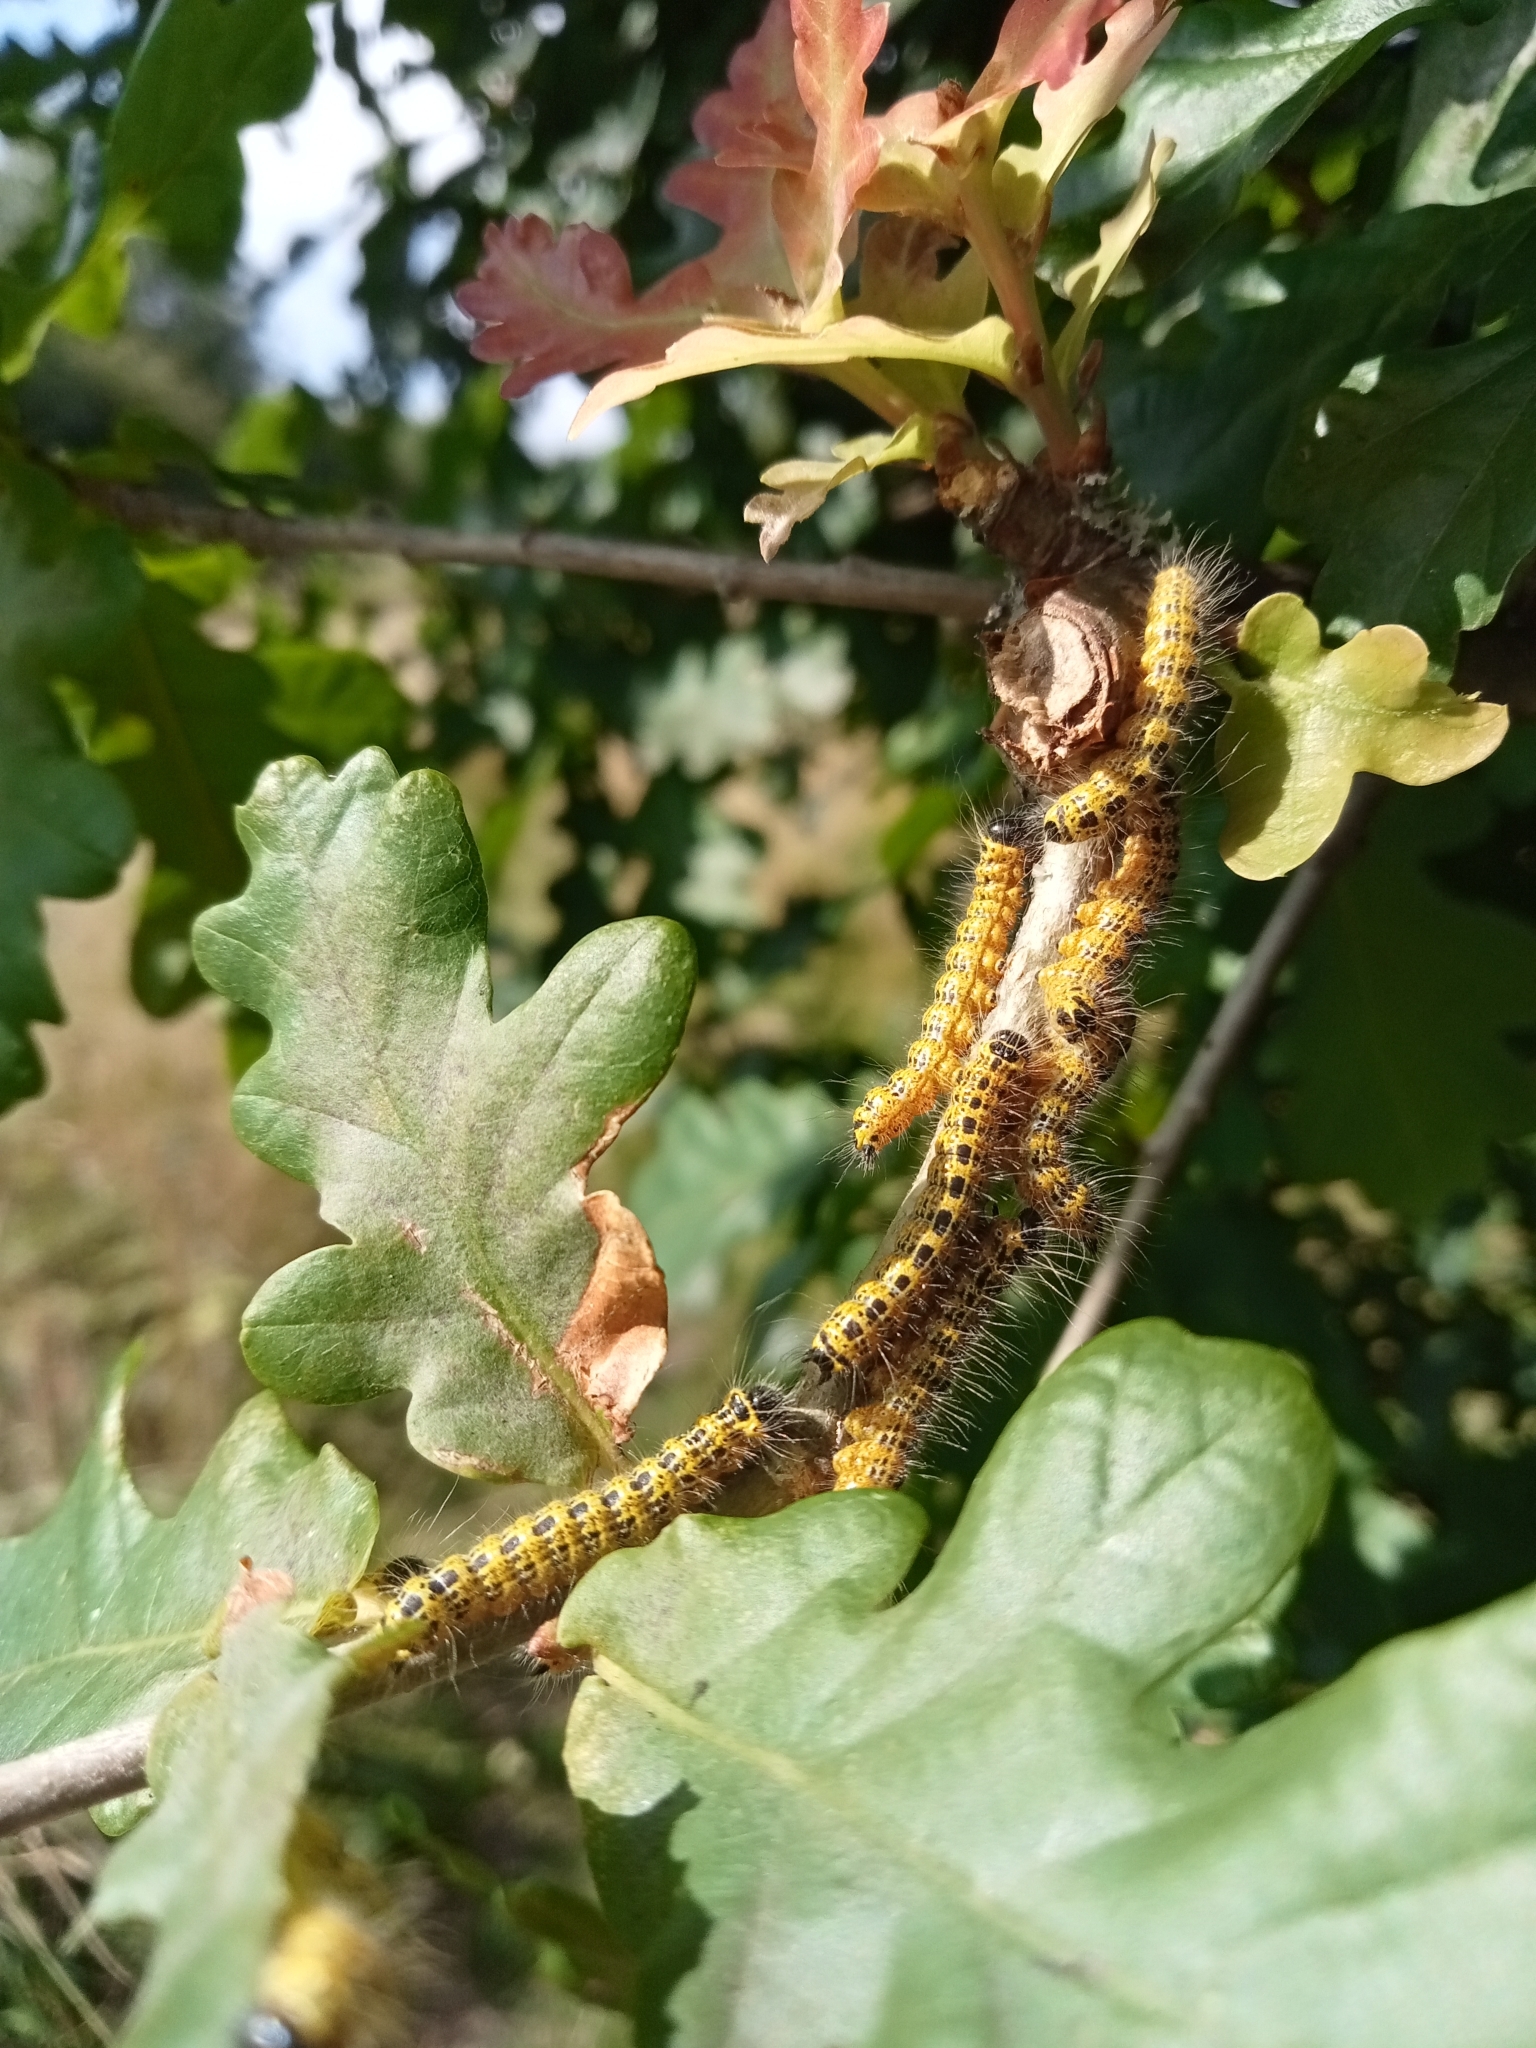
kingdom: Animalia
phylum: Arthropoda
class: Insecta
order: Lepidoptera
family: Notodontidae
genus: Phalera
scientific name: Phalera bucephala
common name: Buff-tip
